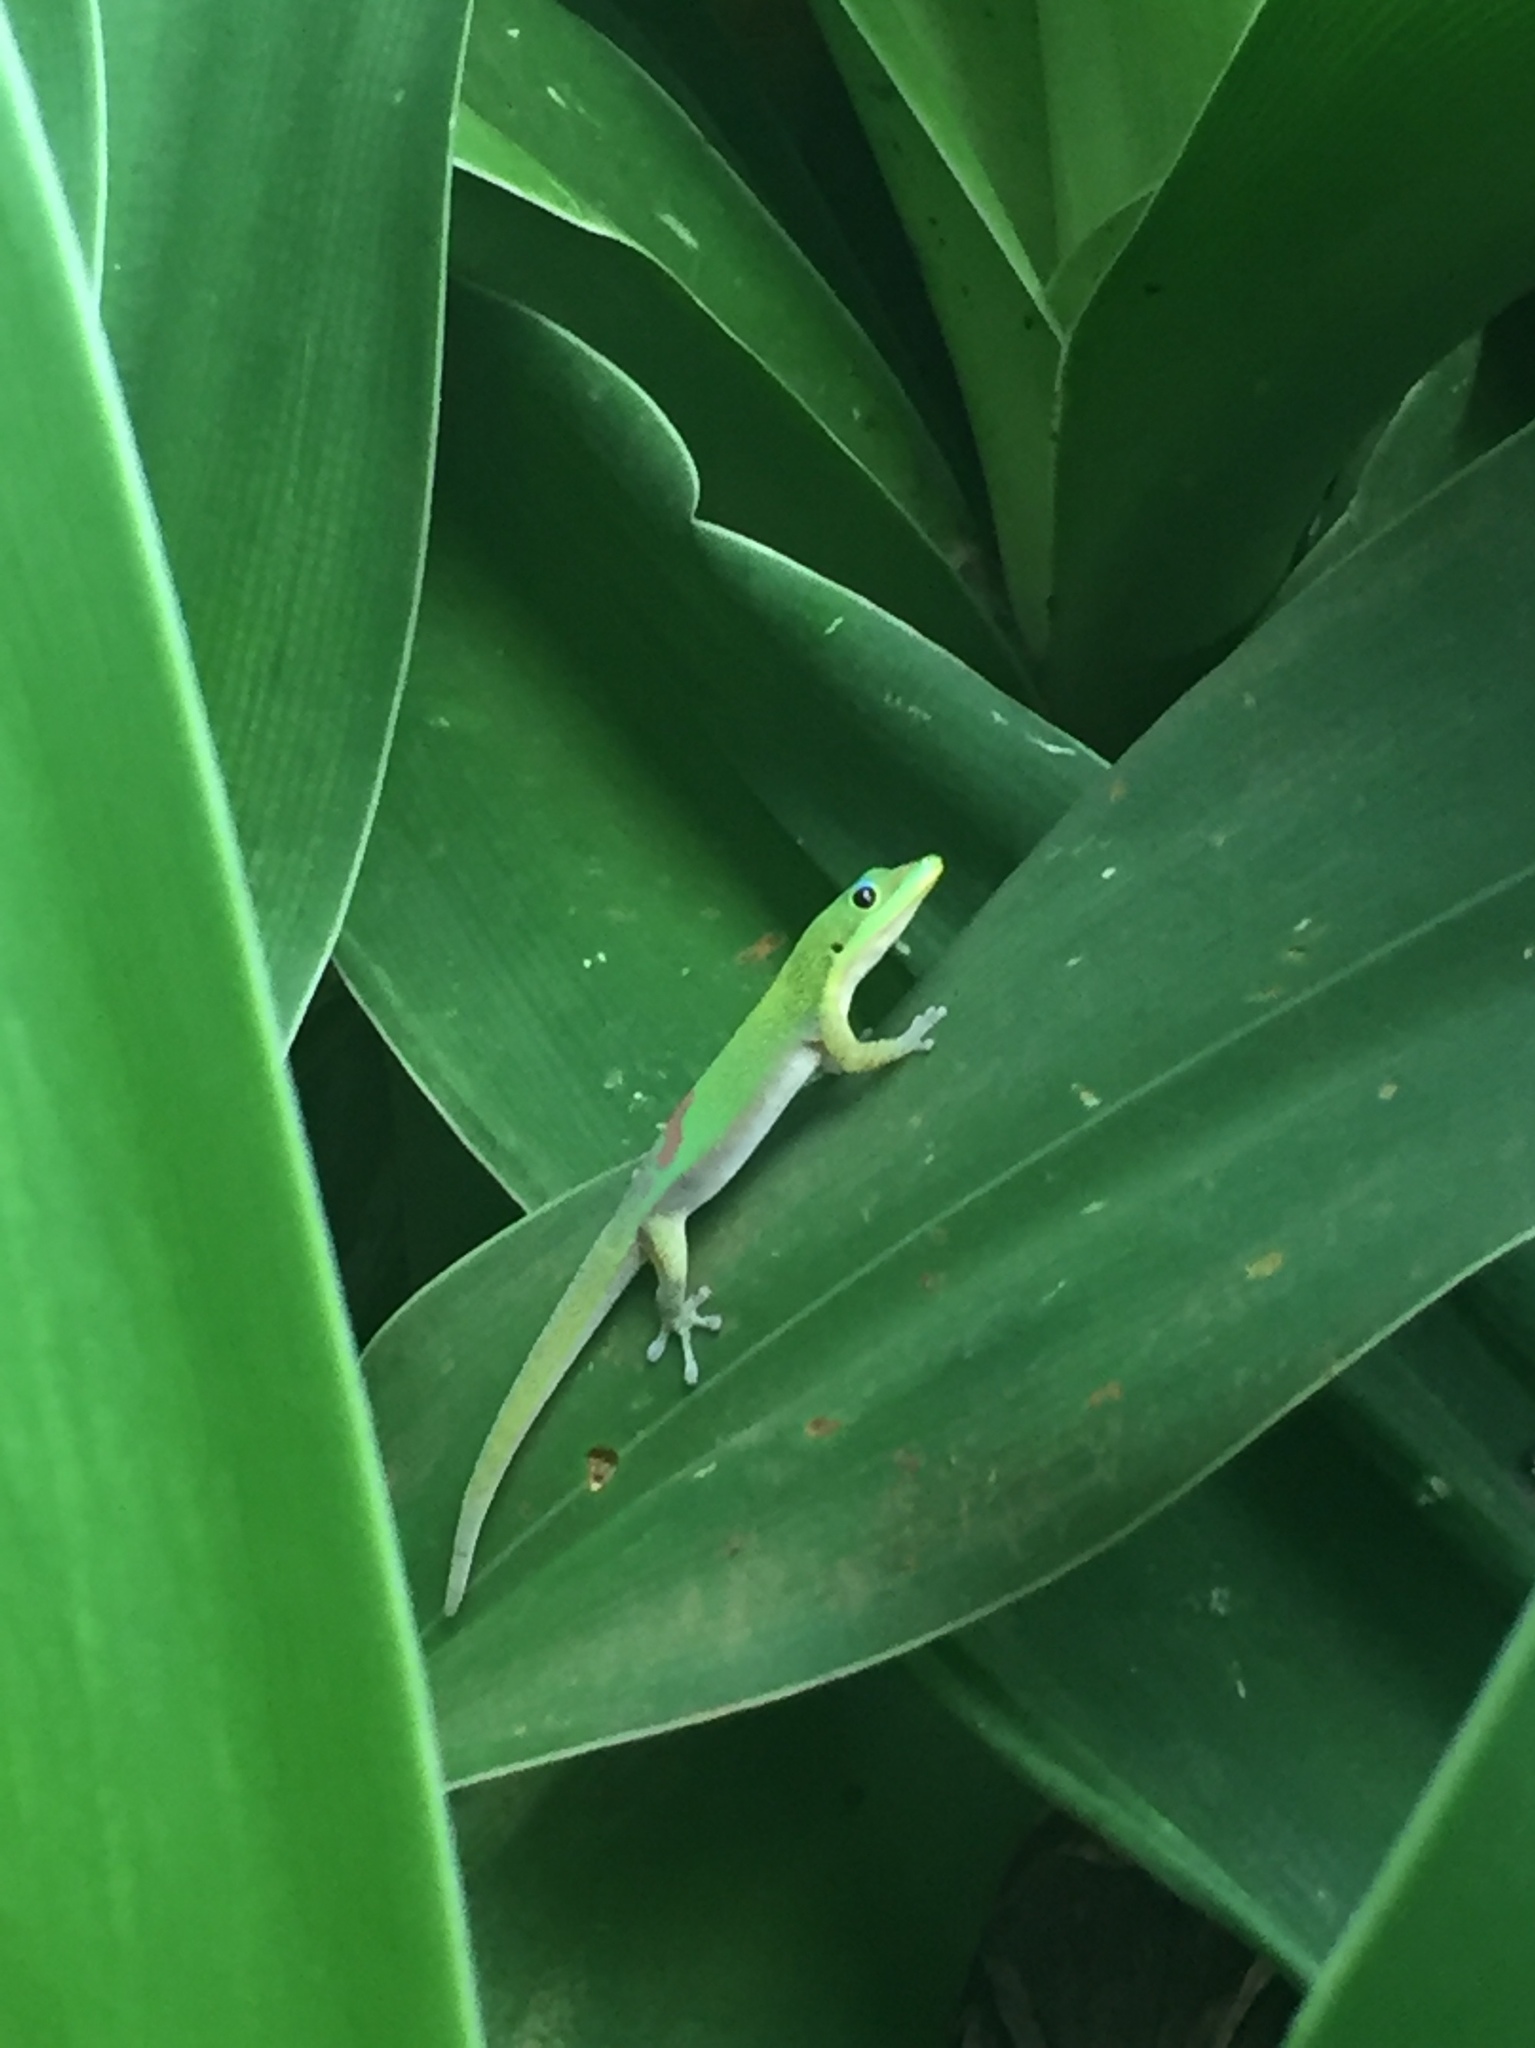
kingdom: Animalia
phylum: Chordata
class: Squamata
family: Gekkonidae
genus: Phelsuma
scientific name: Phelsuma laticauda
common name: Gold dust day gecko
